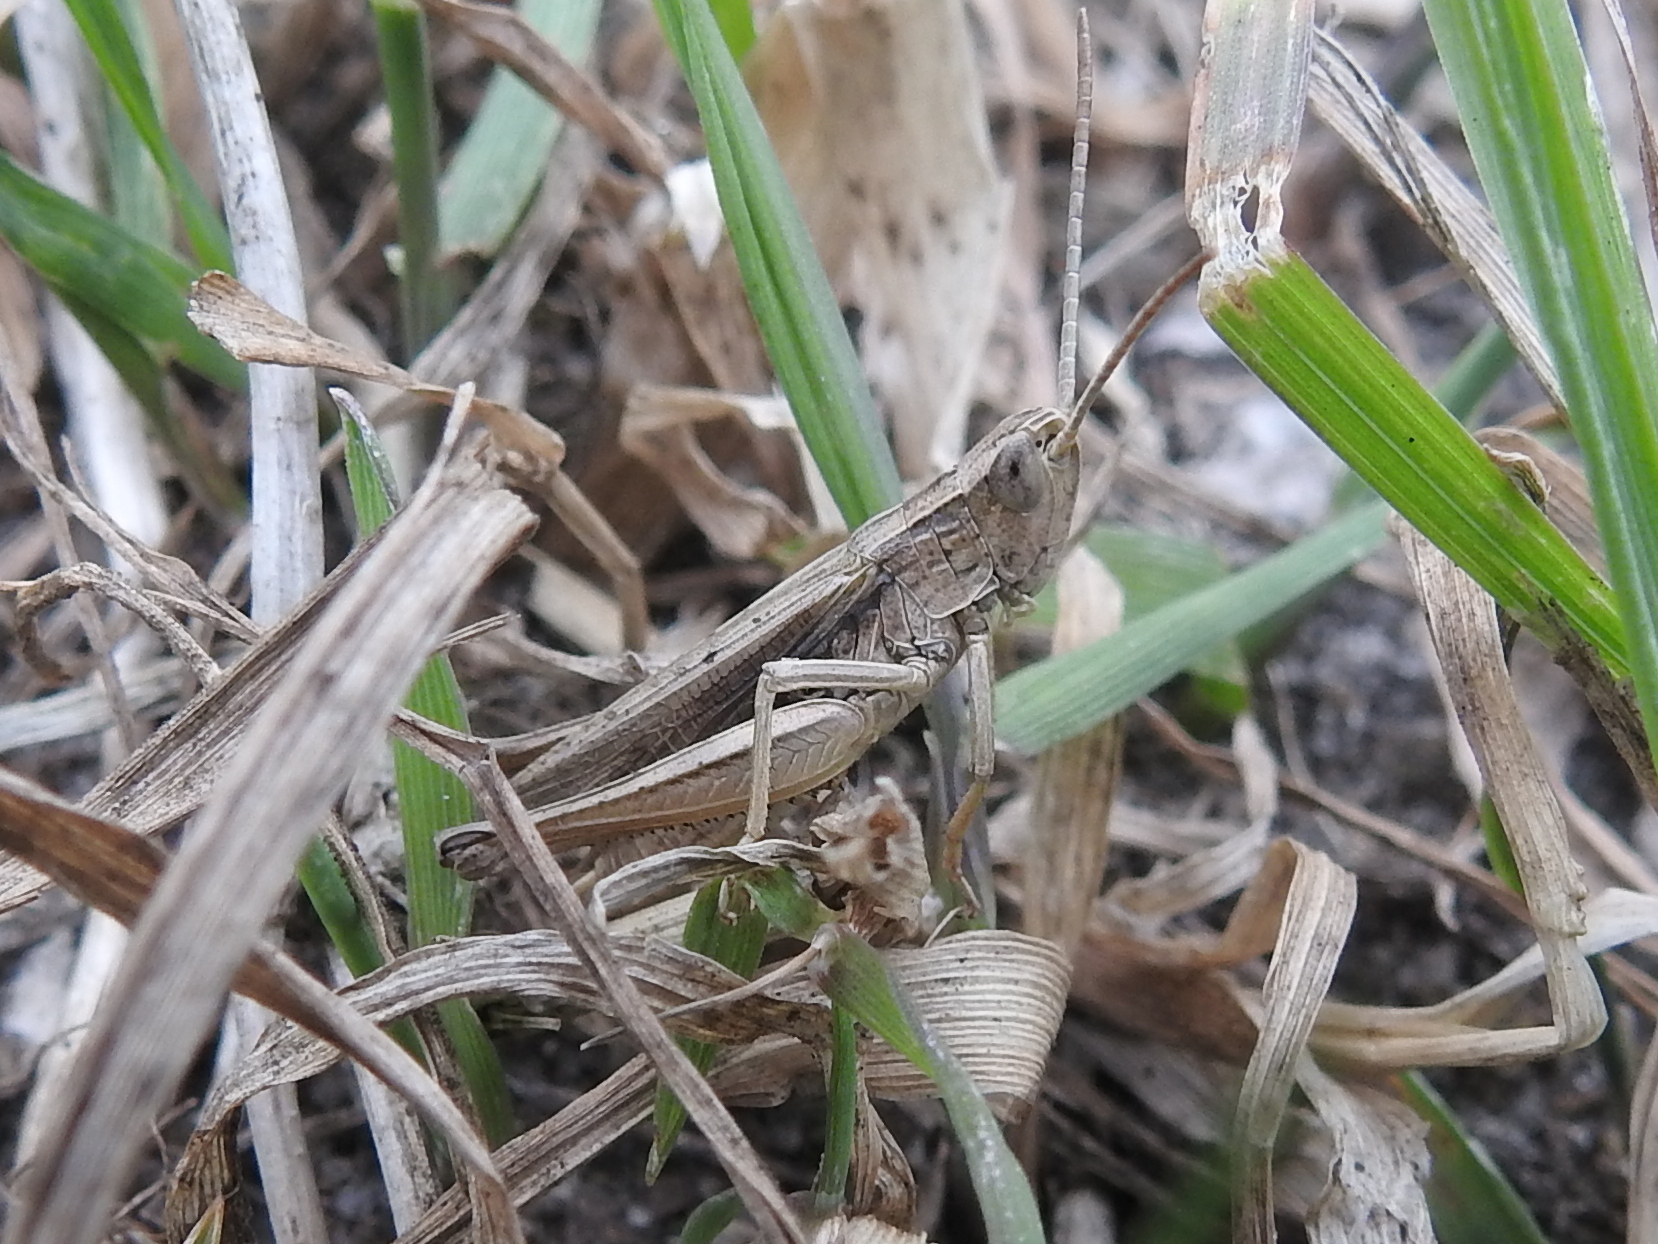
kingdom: Animalia
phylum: Arthropoda
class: Insecta
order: Orthoptera
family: Acrididae
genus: Chorthippus
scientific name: Chorthippus albomarginatus
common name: Lesser marsh grasshopper
